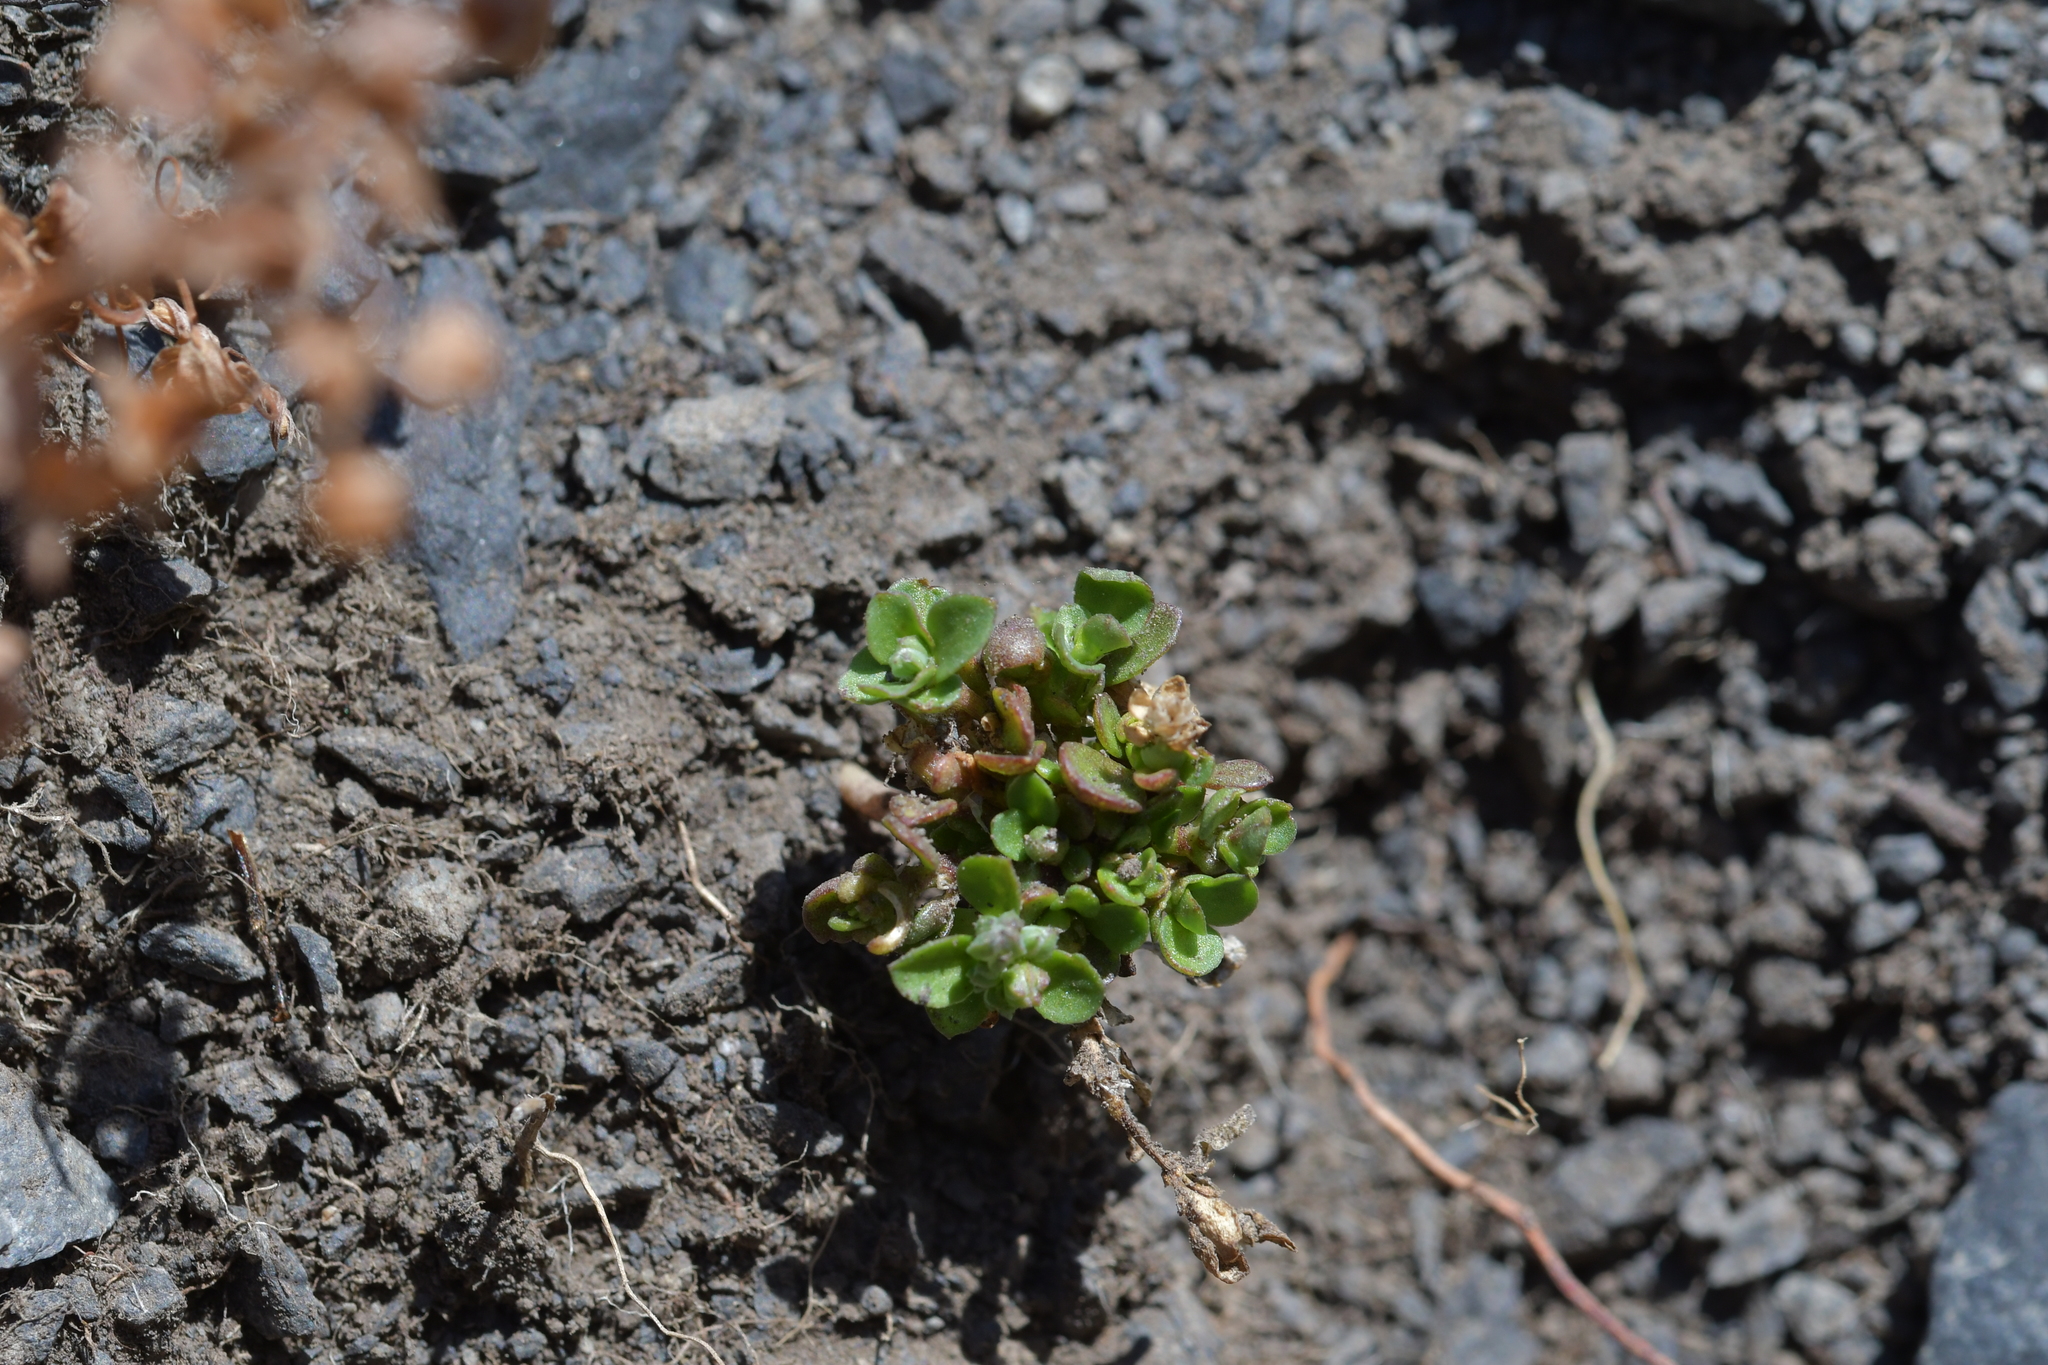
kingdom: Plantae
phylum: Tracheophyta
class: Magnoliopsida
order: Caryophyllales
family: Caryophyllaceae
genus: Polycarpon
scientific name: Polycarpon tetraphyllum
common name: Four-leaved all-seed
